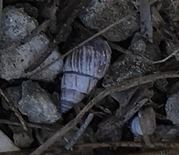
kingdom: Animalia
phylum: Mollusca
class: Gastropoda
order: Stylommatophora
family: Bulimulidae
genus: Drymaeus
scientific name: Drymaeus
